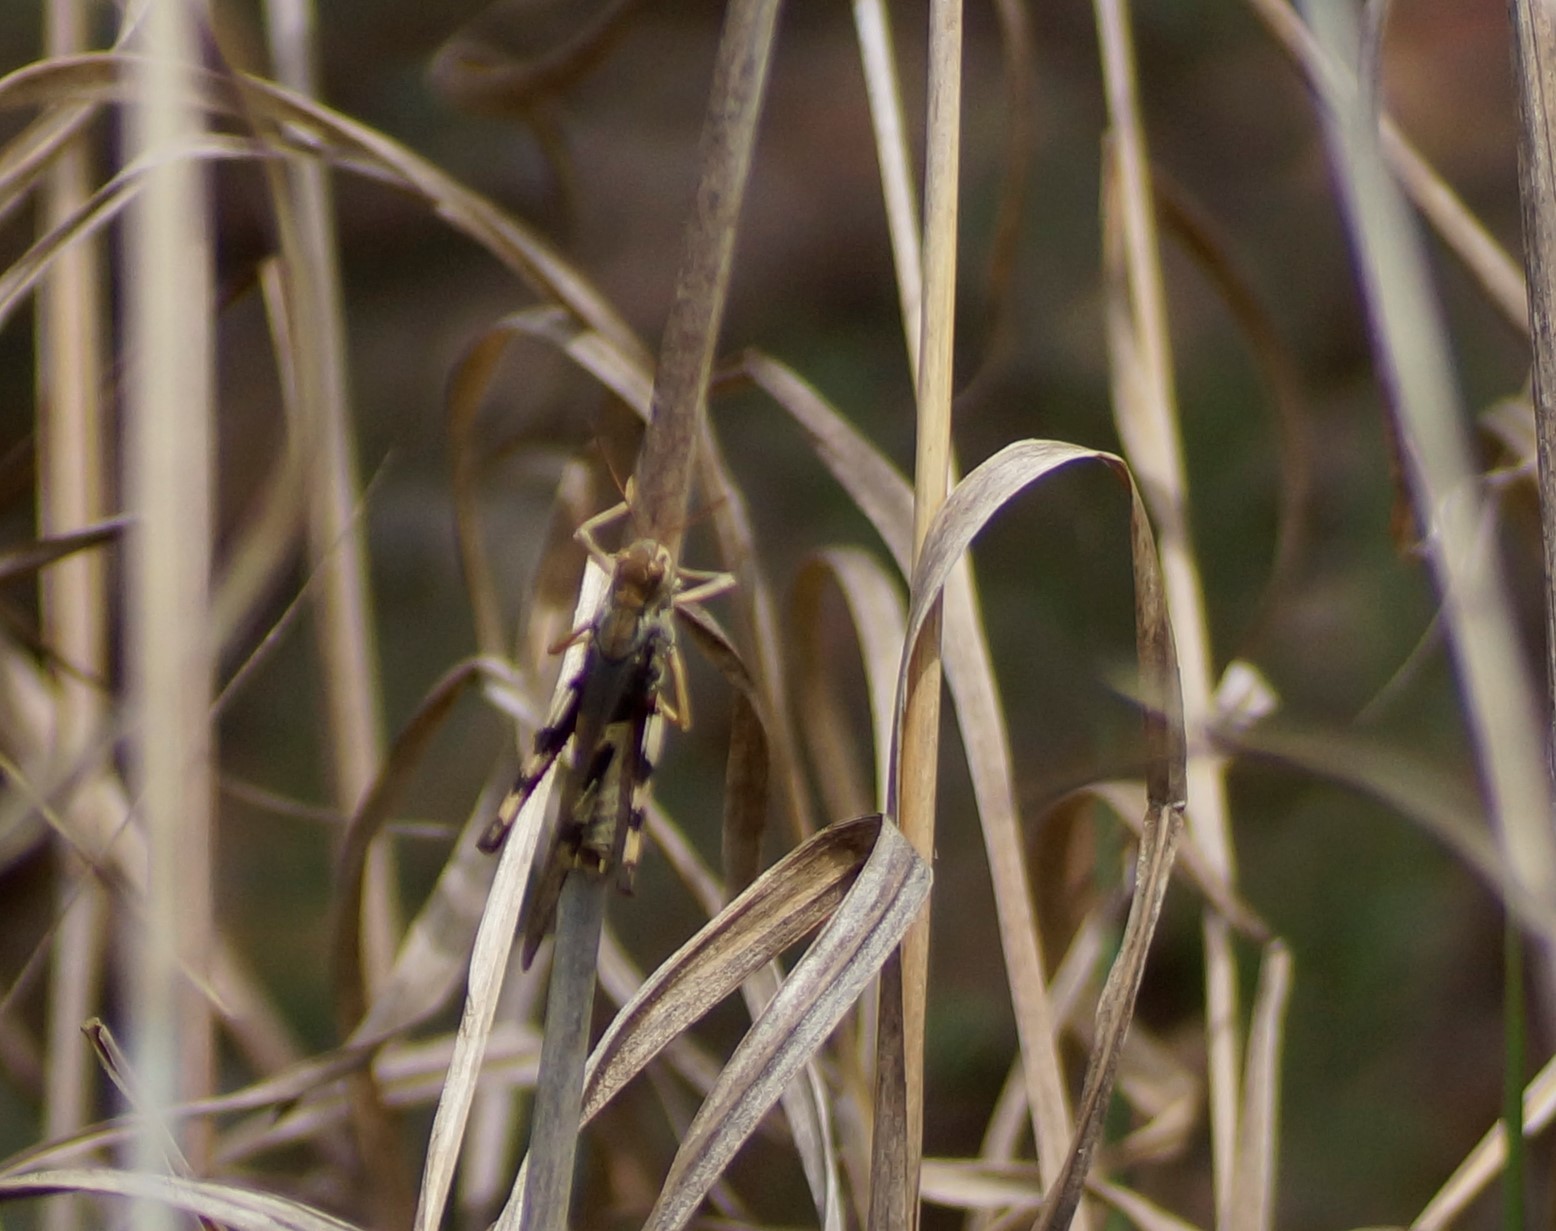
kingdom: Animalia
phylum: Arthropoda
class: Insecta
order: Orthoptera
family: Acrididae
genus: Gastrimargus
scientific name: Gastrimargus musicus
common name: Yellow-winged locust
